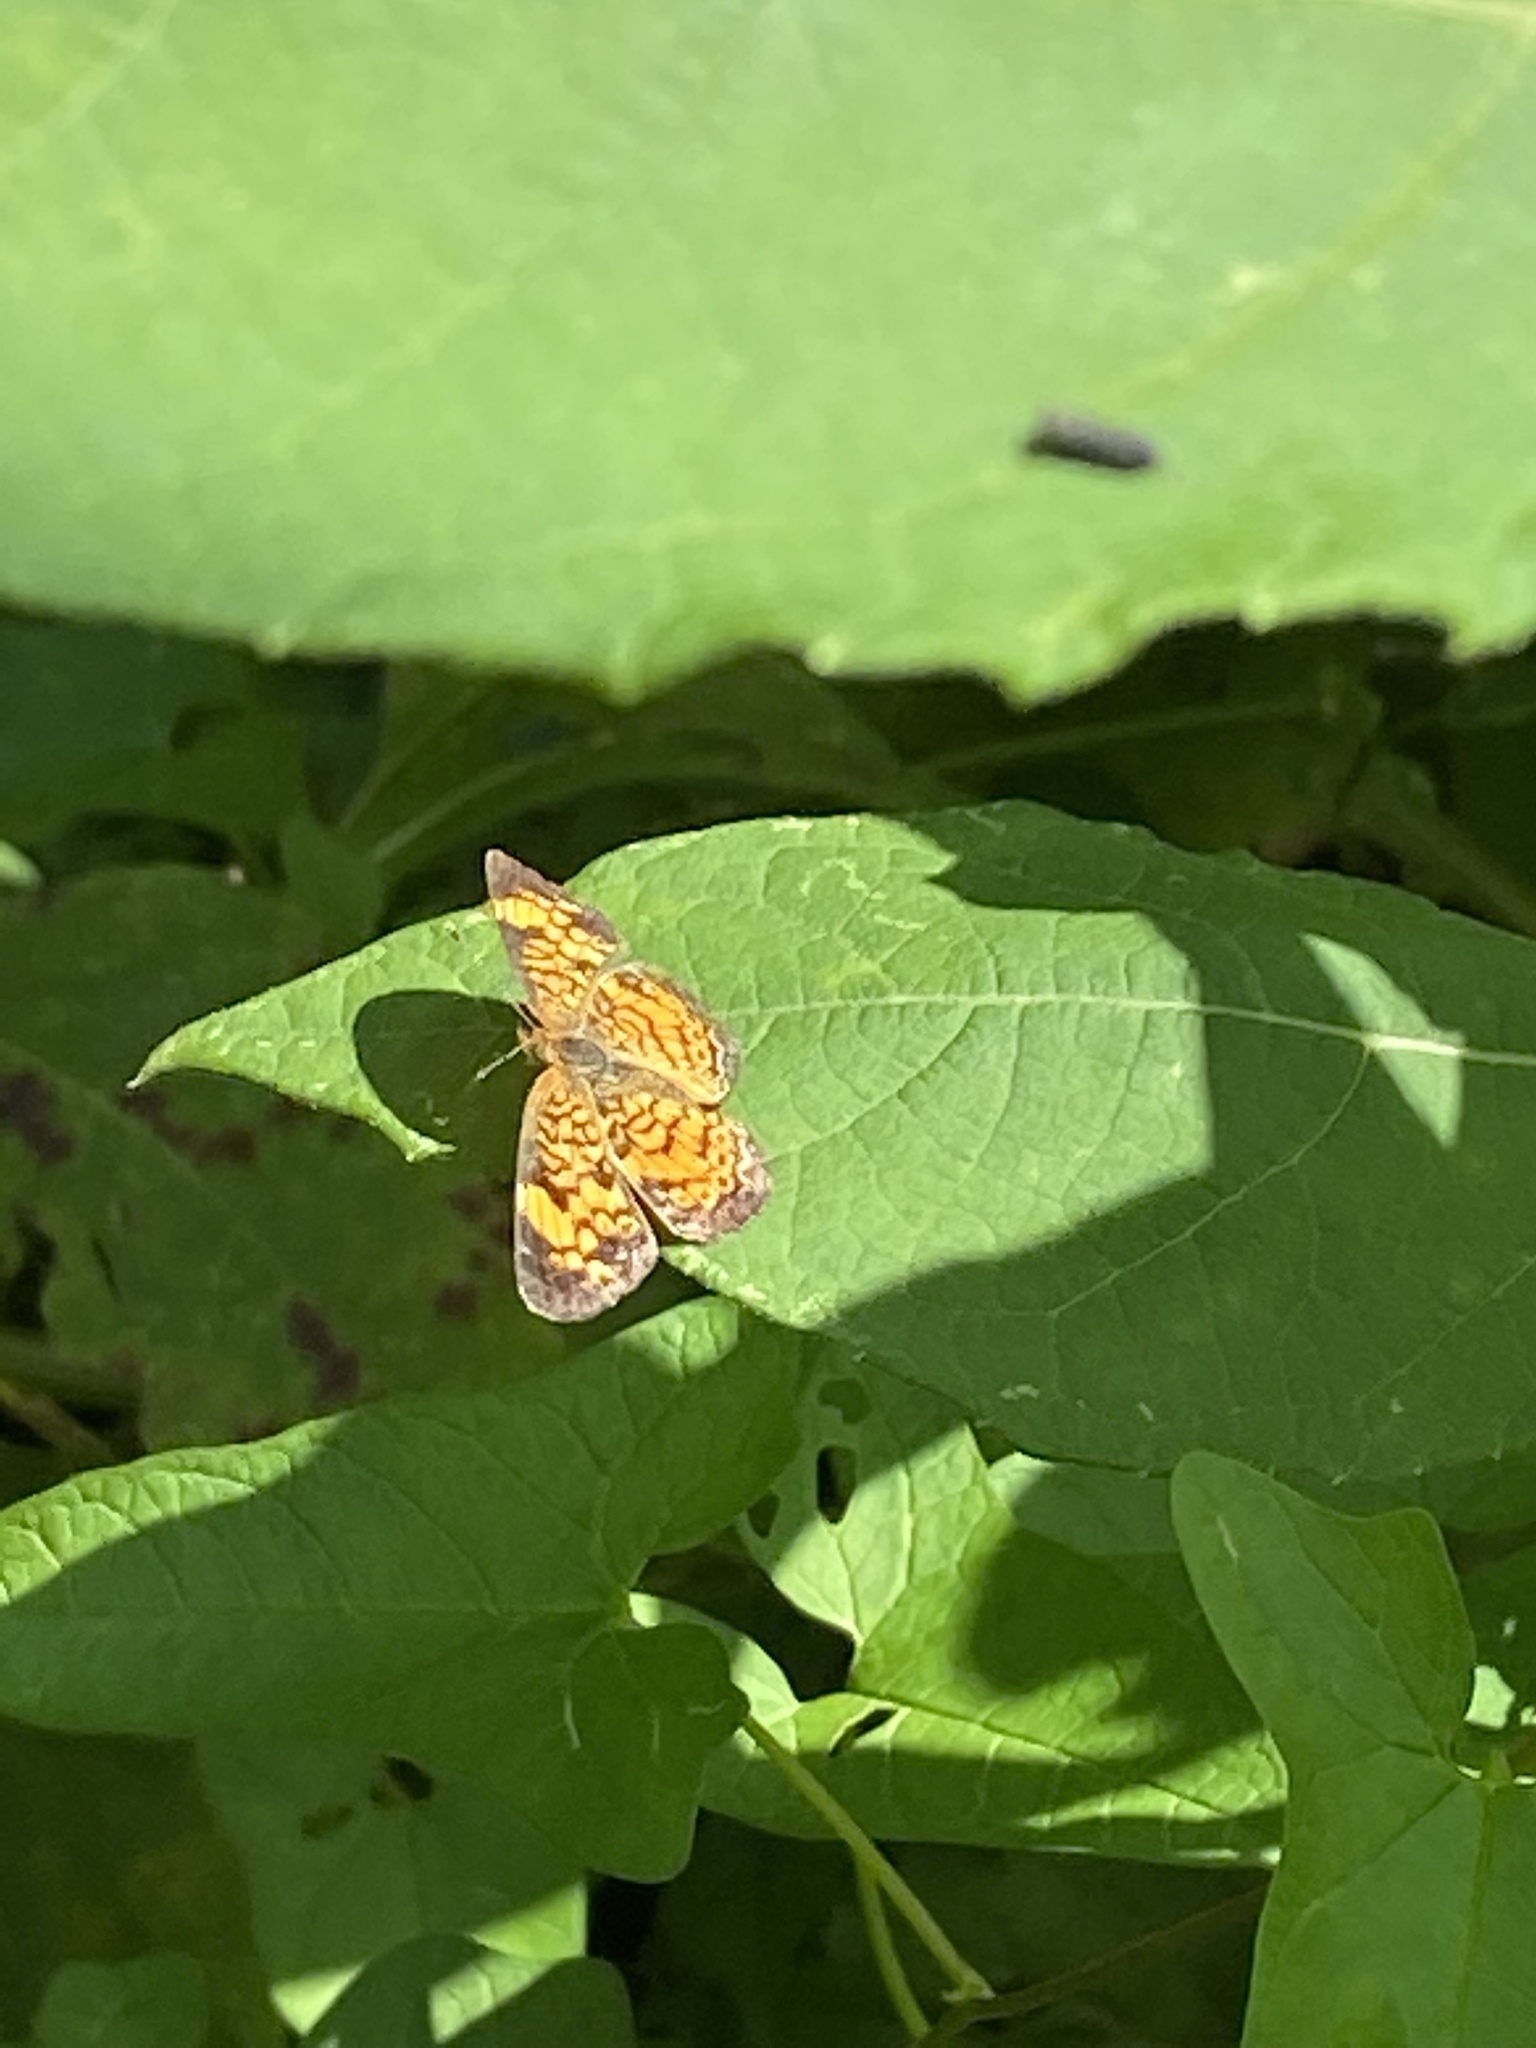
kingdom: Animalia
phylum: Arthropoda
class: Insecta
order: Lepidoptera
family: Nymphalidae
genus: Phyciodes
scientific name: Phyciodes tharos
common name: Pearl crescent
